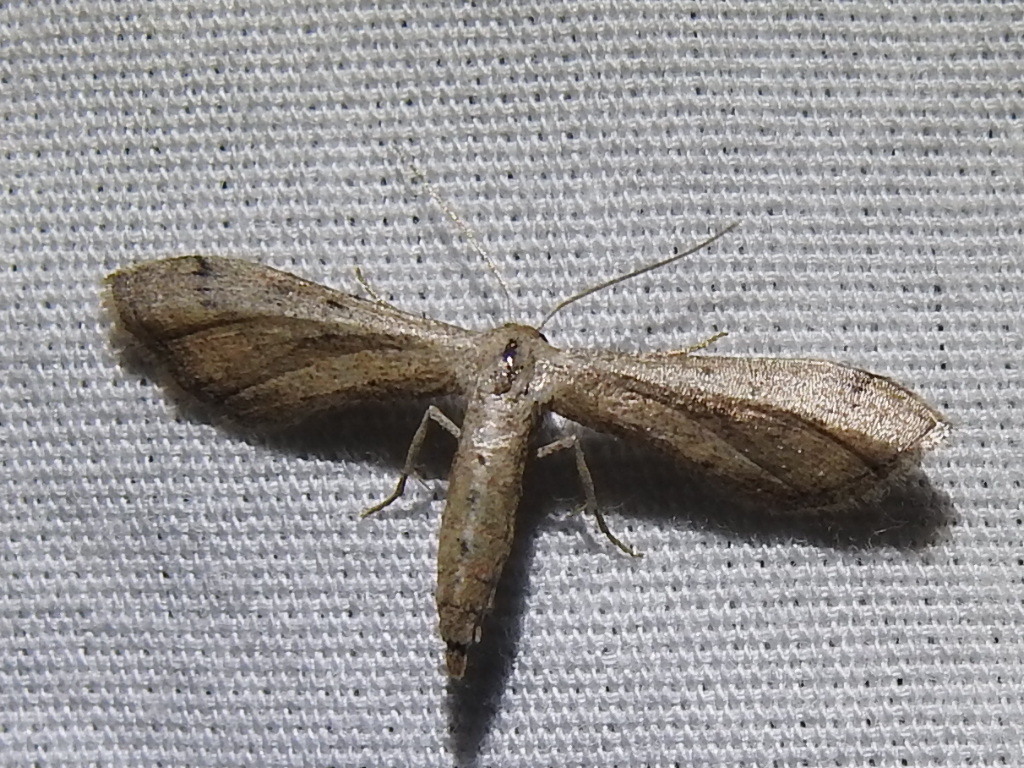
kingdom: Animalia
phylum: Arthropoda
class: Insecta
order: Lepidoptera
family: Geometridae
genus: Tornos
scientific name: Tornos scolopacinaria
